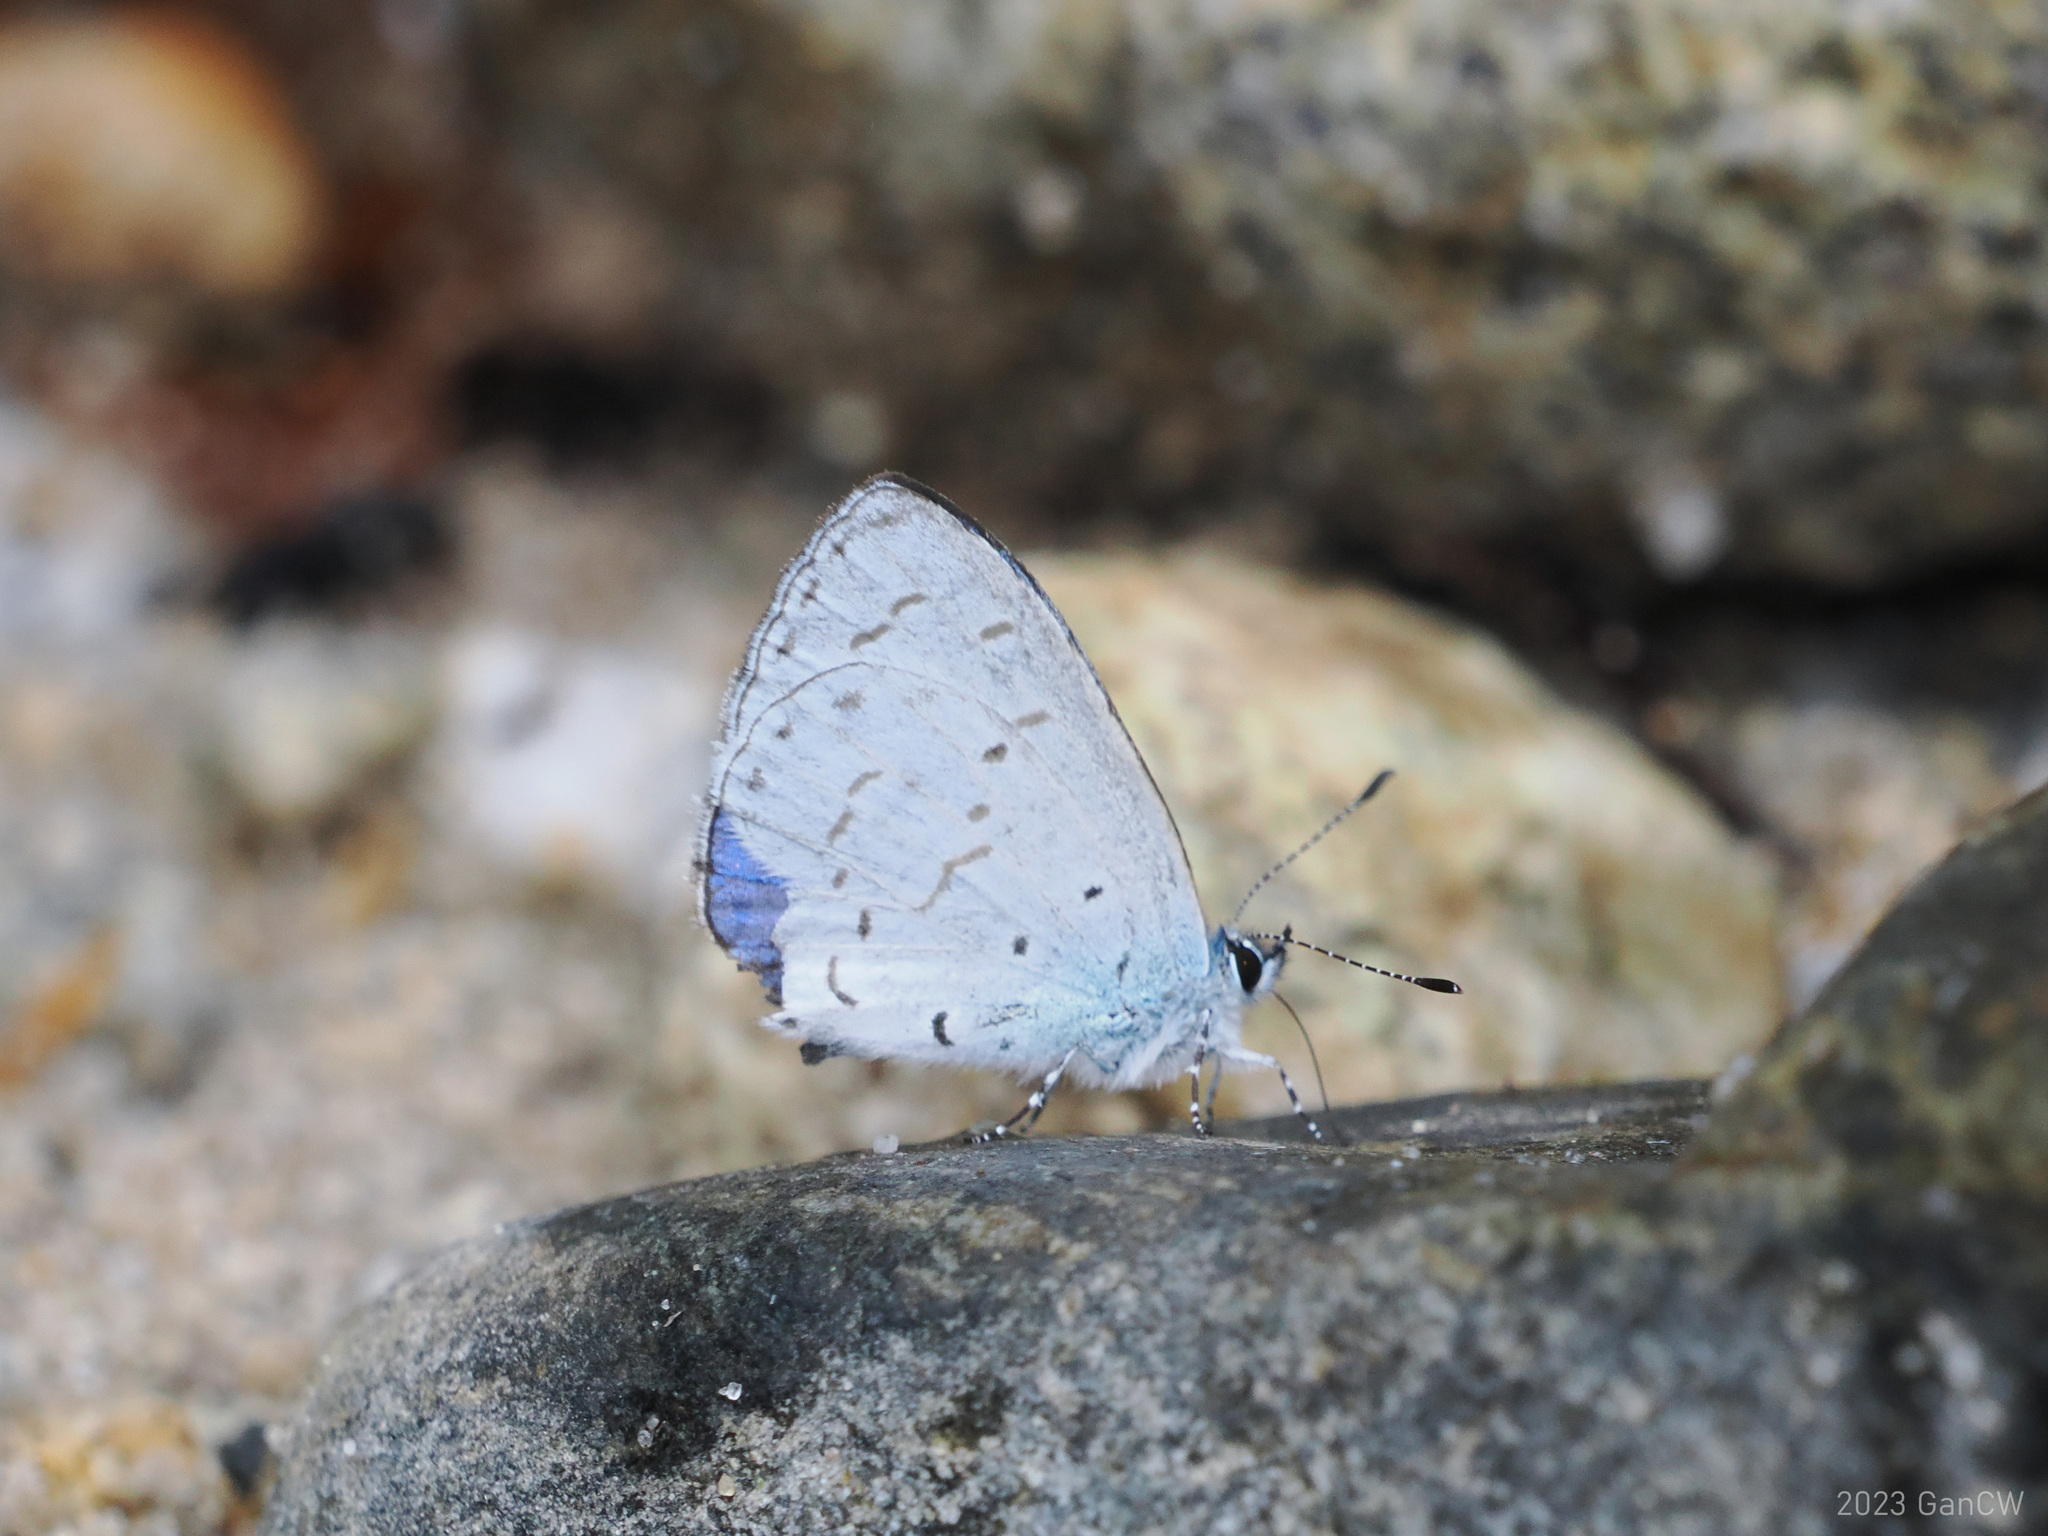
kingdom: Animalia
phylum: Arthropoda
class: Insecta
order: Lepidoptera
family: Lycaenidae
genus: Udara
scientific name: Udara camenae
